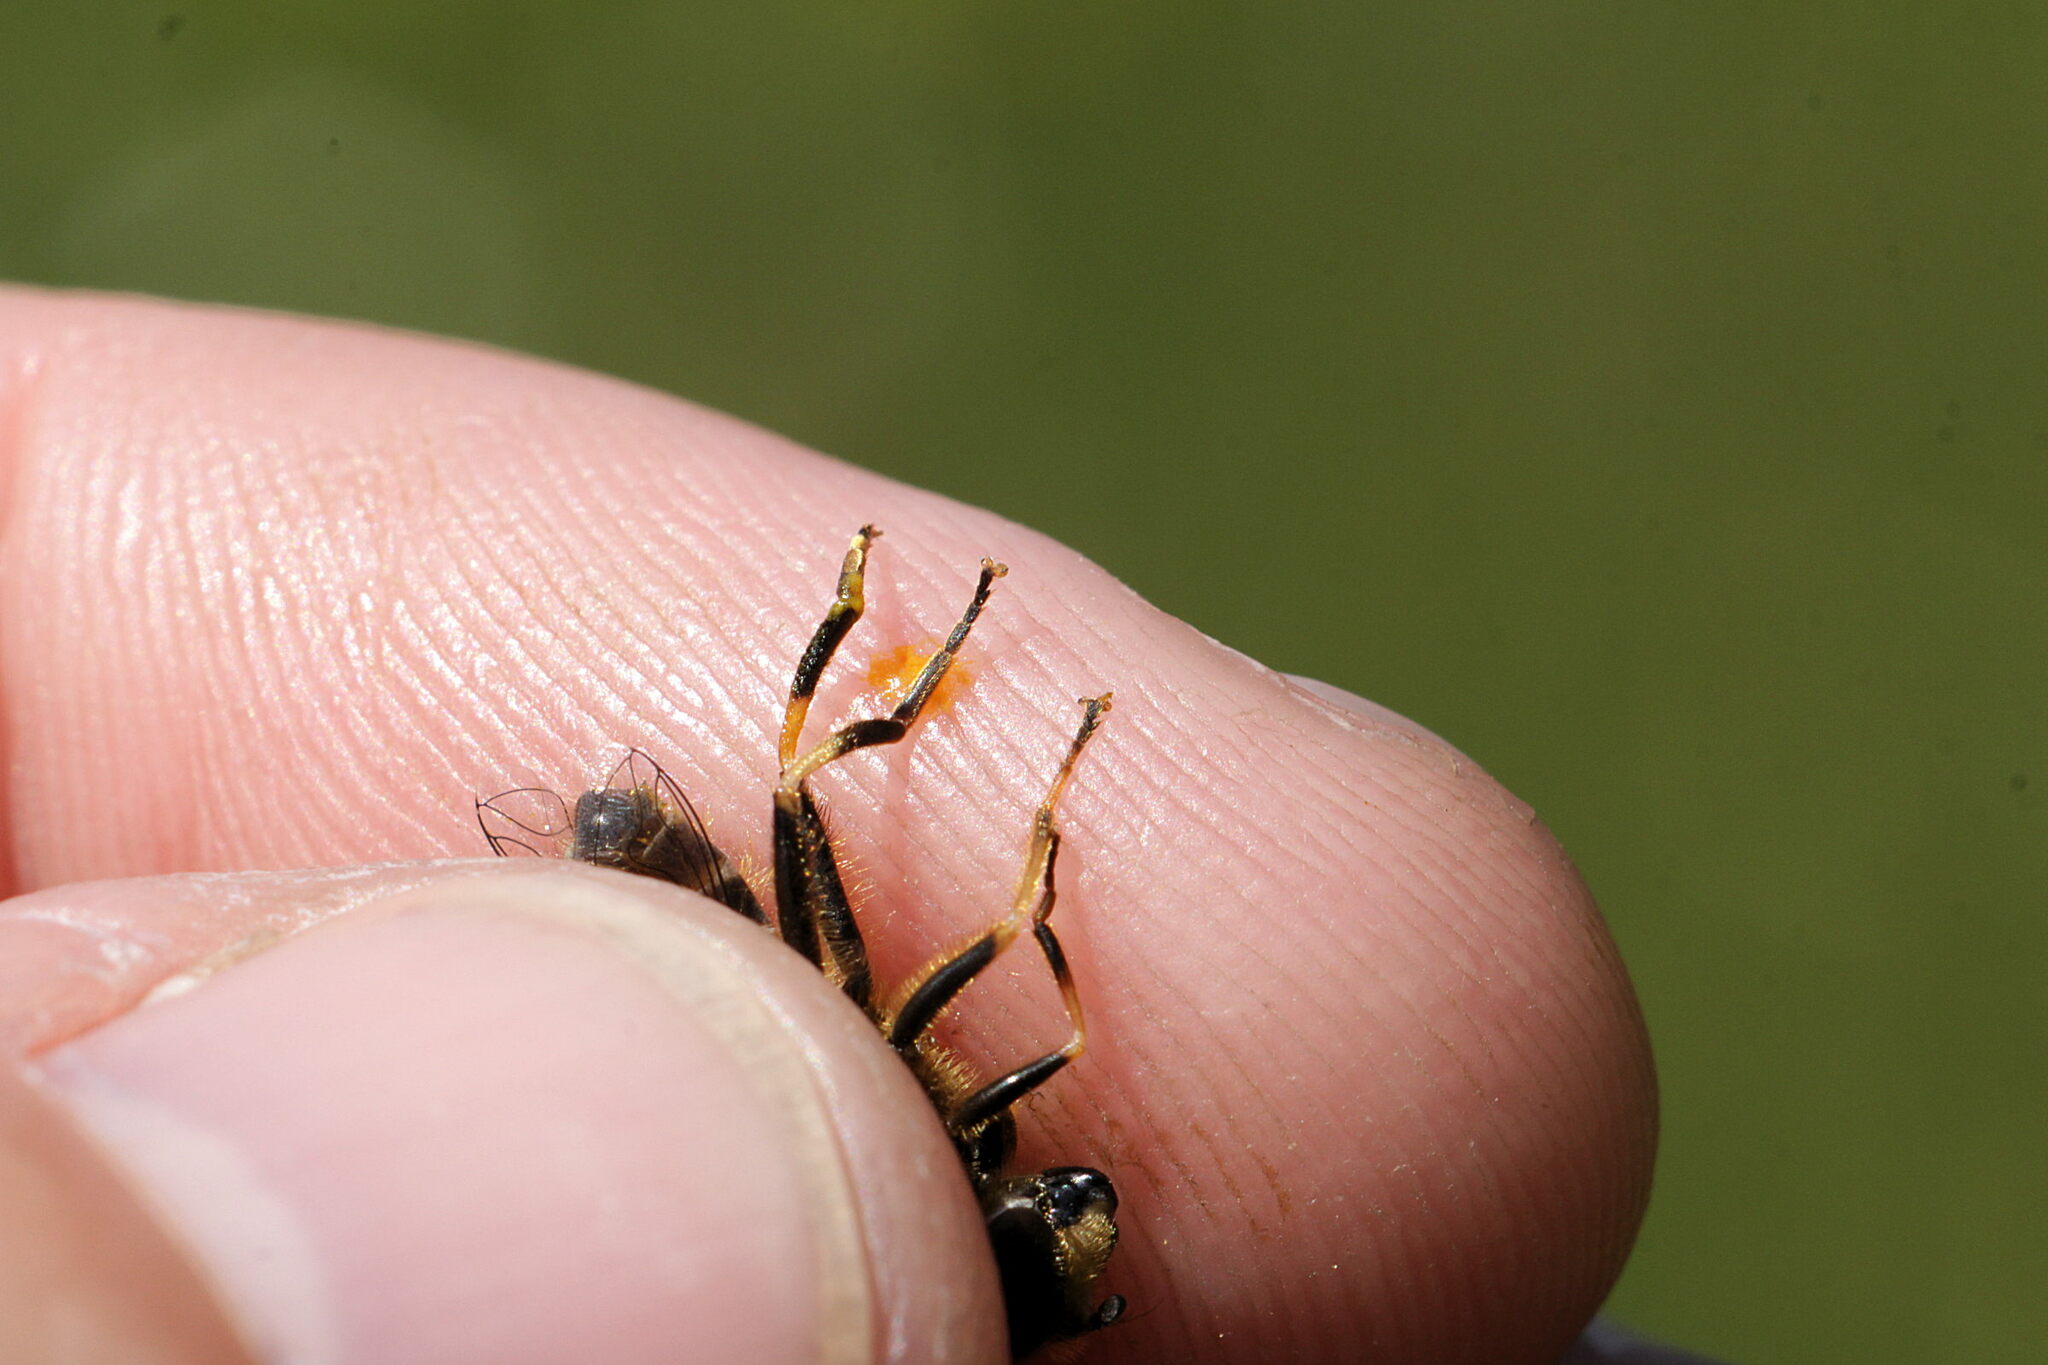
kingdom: Animalia
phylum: Arthropoda
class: Insecta
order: Diptera
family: Syrphidae
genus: Eristalis
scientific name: Eristalis nemorum
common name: Orange-spined drone fly
